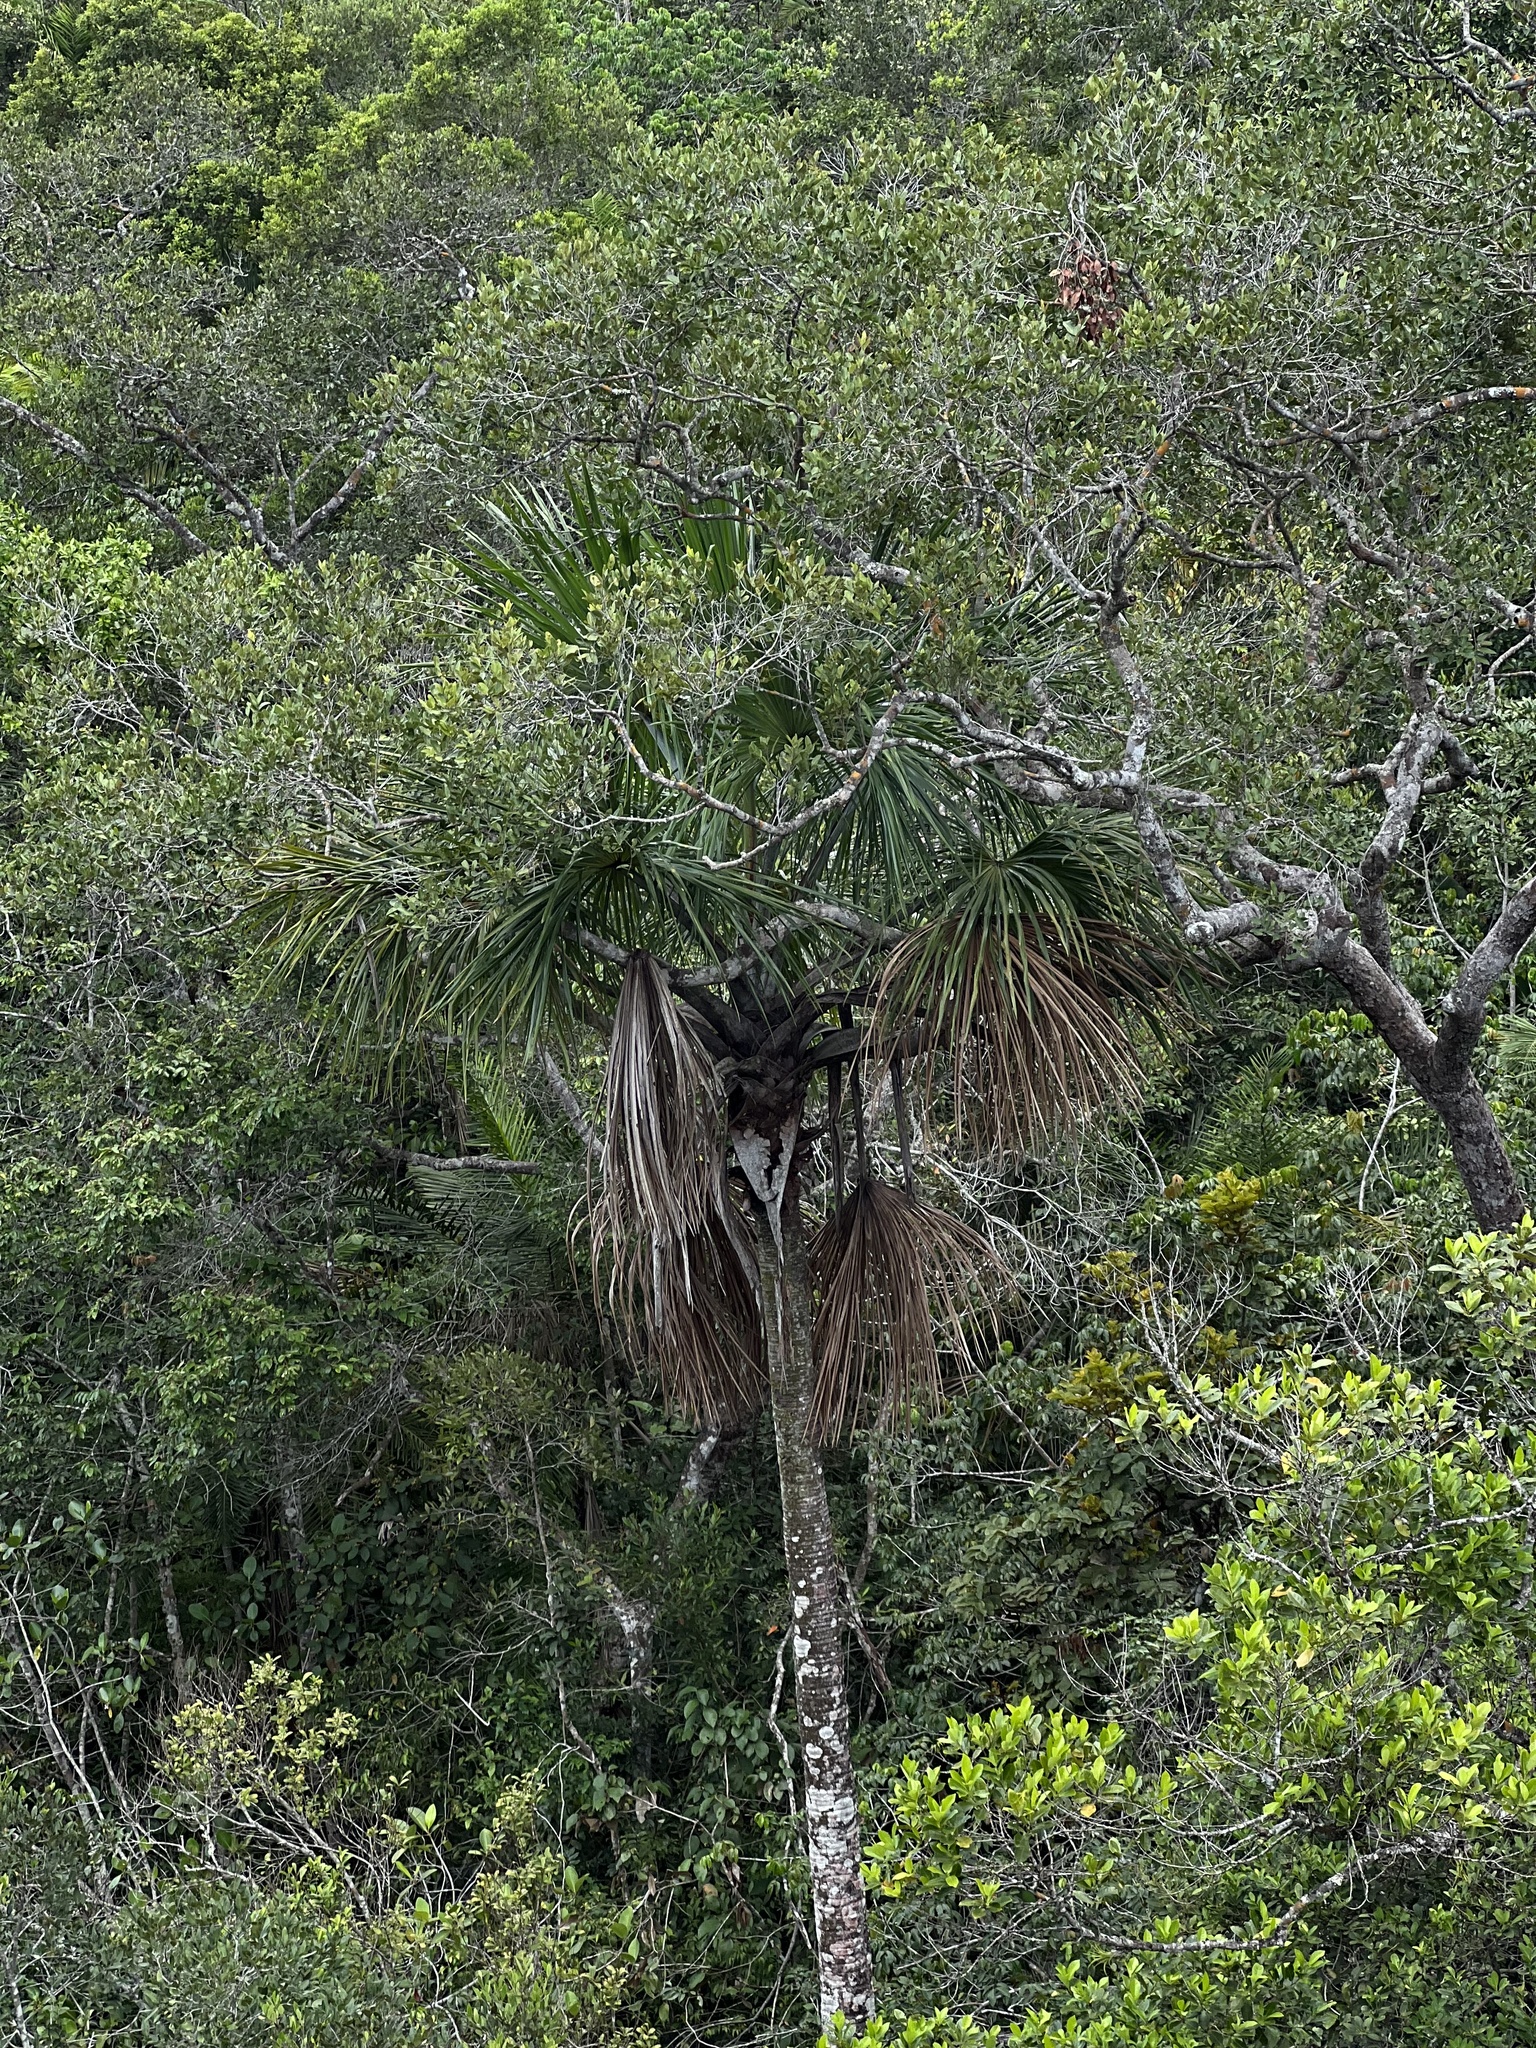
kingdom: Plantae
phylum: Tracheophyta
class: Liliopsida
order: Arecales
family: Arecaceae
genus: Mauritia
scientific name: Mauritia flexuosa
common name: Tree-of-life
